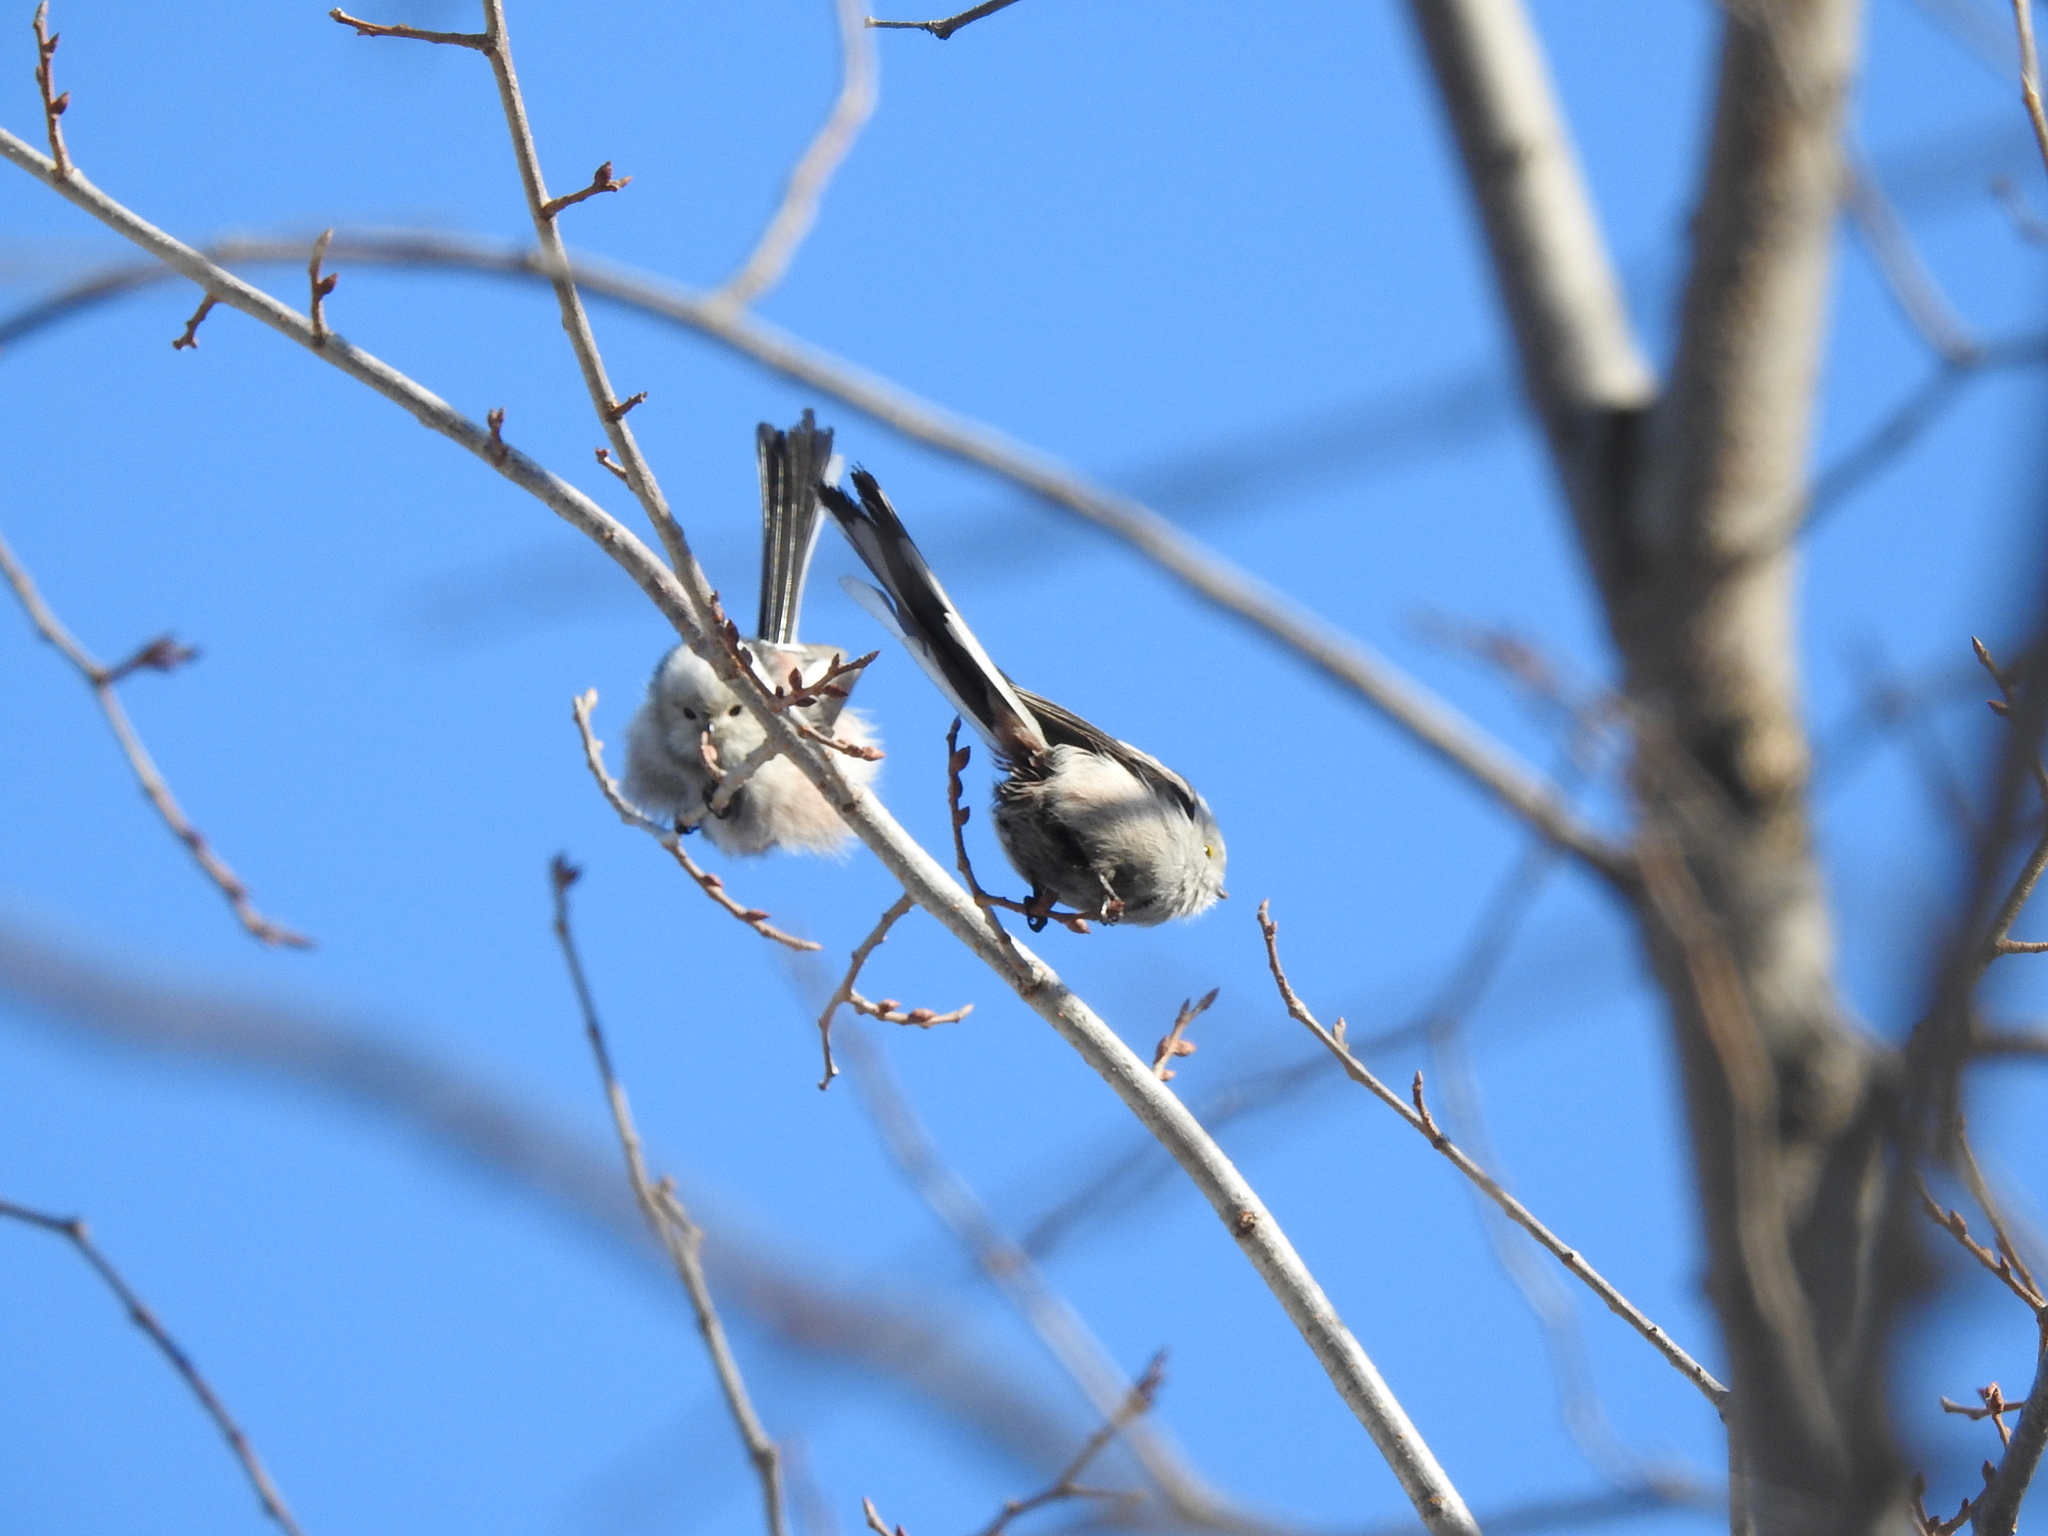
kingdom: Animalia
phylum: Chordata
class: Aves
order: Passeriformes
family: Aegithalidae
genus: Aegithalos
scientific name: Aegithalos caudatus
